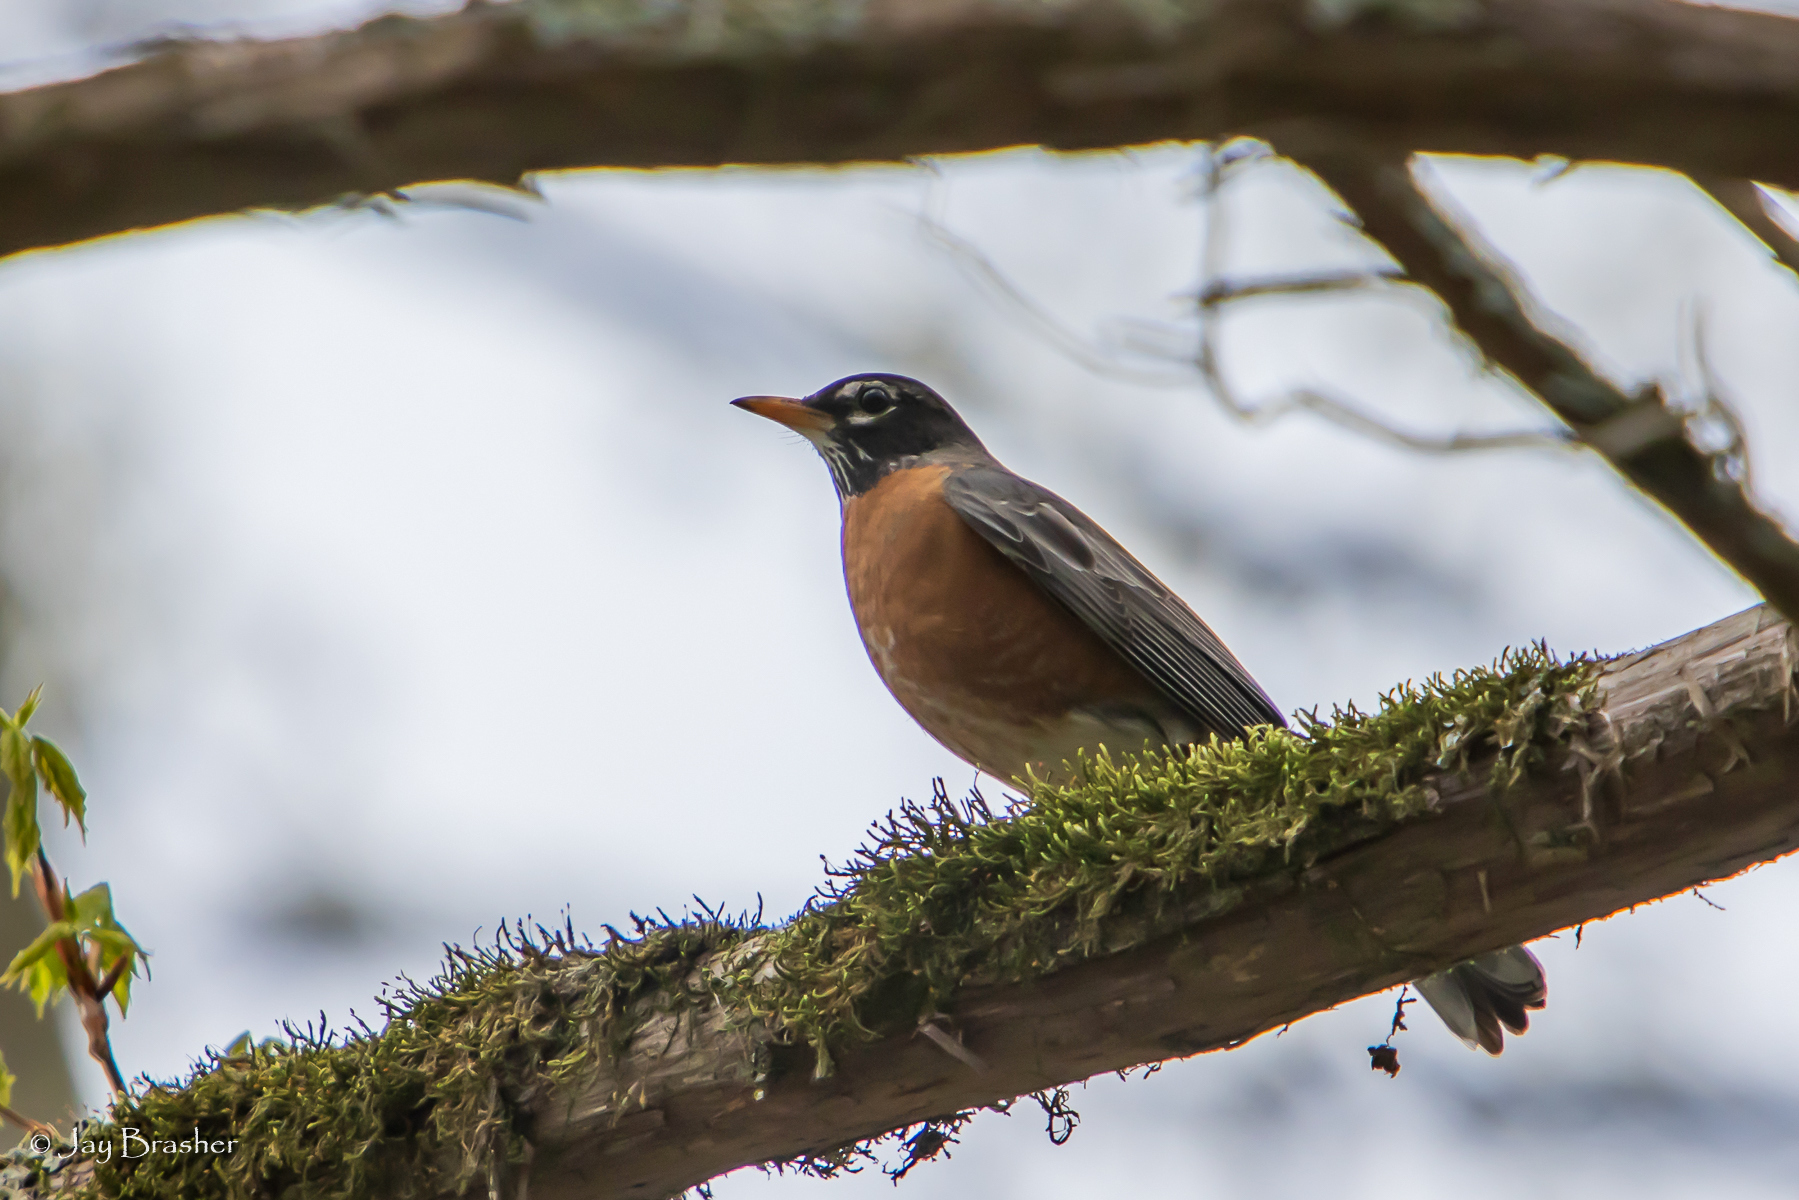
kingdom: Animalia
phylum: Chordata
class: Aves
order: Passeriformes
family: Turdidae
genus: Turdus
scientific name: Turdus migratorius
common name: American robin
